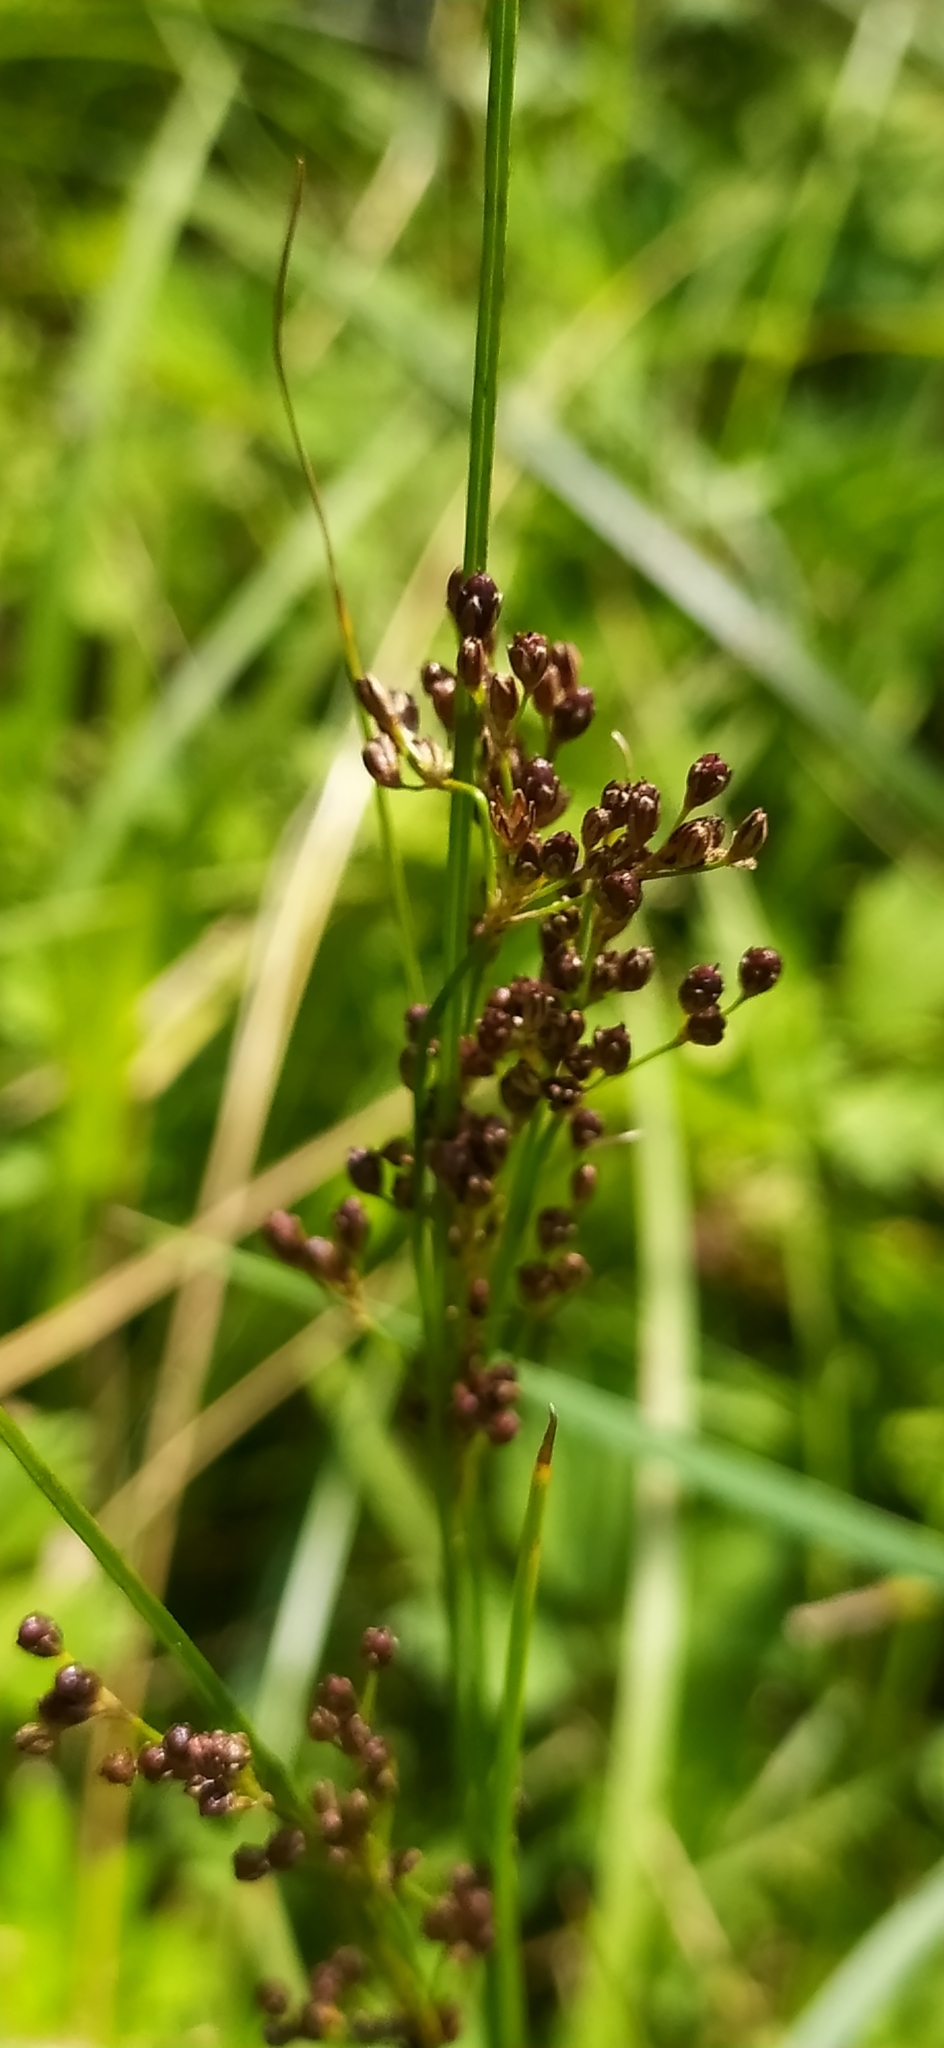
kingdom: Plantae
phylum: Tracheophyta
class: Liliopsida
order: Poales
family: Juncaceae
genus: Juncus
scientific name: Juncus compressus
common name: Round-fruited rush
